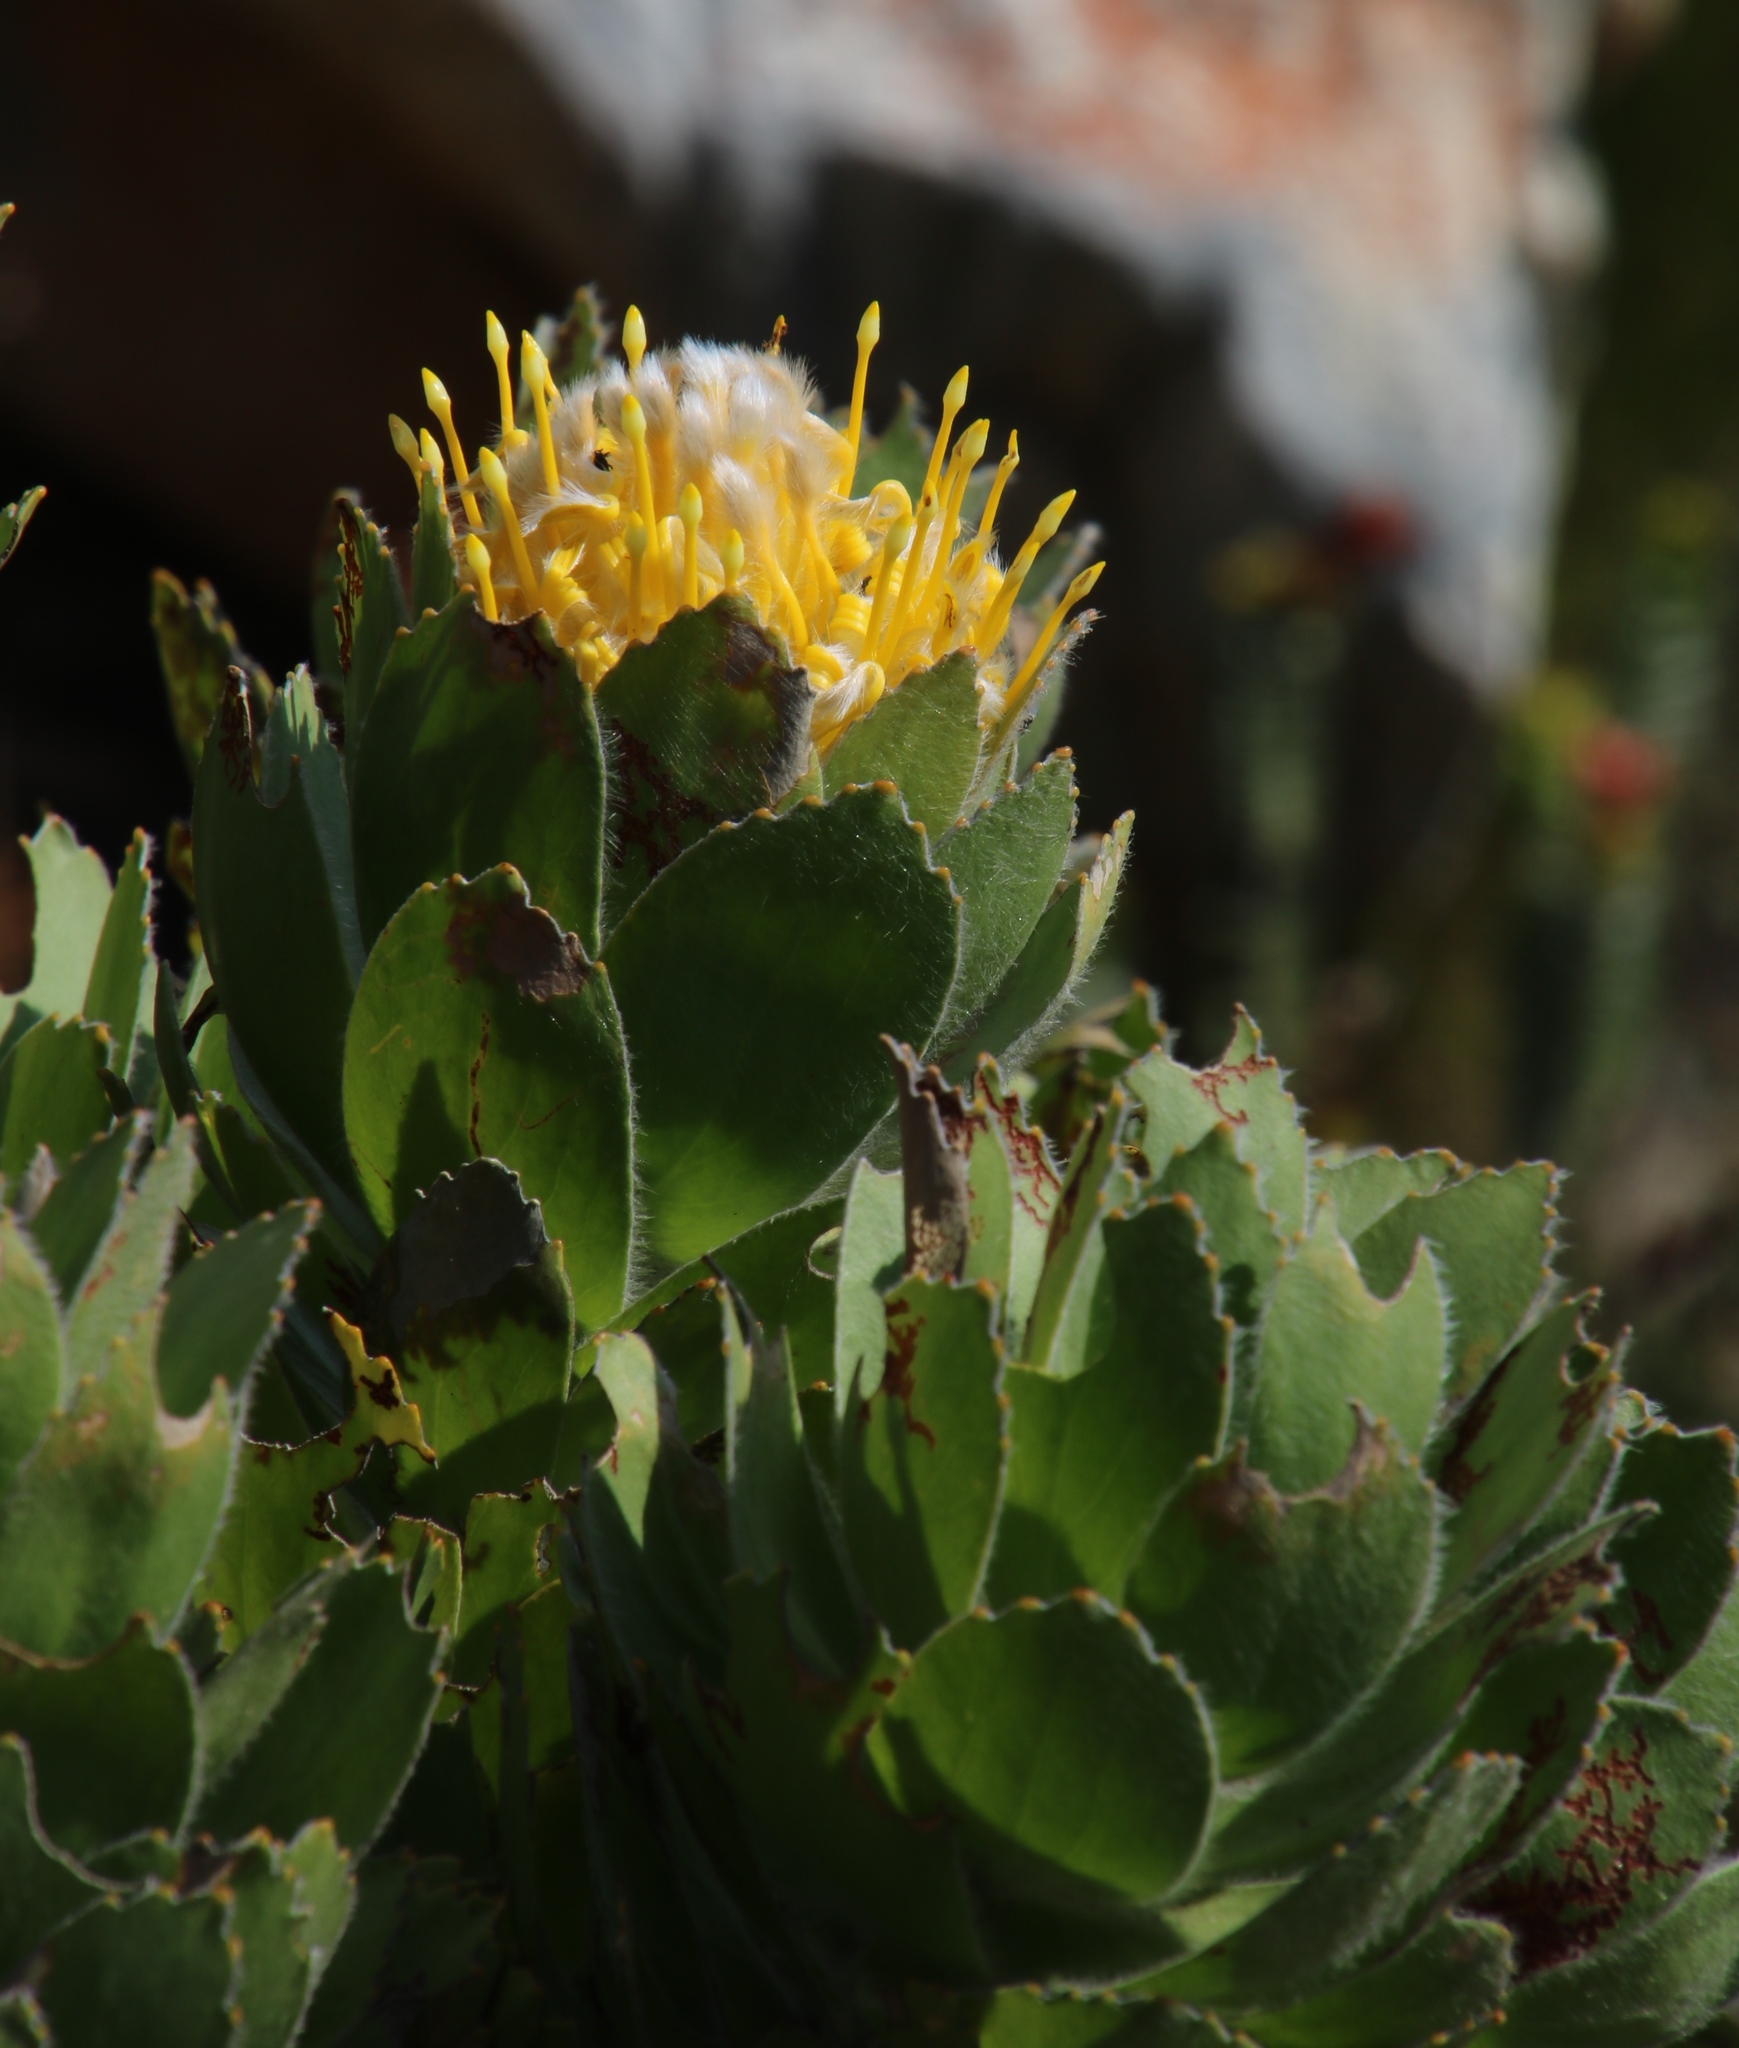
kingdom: Plantae
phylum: Tracheophyta
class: Magnoliopsida
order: Proteales
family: Proteaceae
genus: Leucospermum
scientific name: Leucospermum conocarpodendron
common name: Tree pincushion
